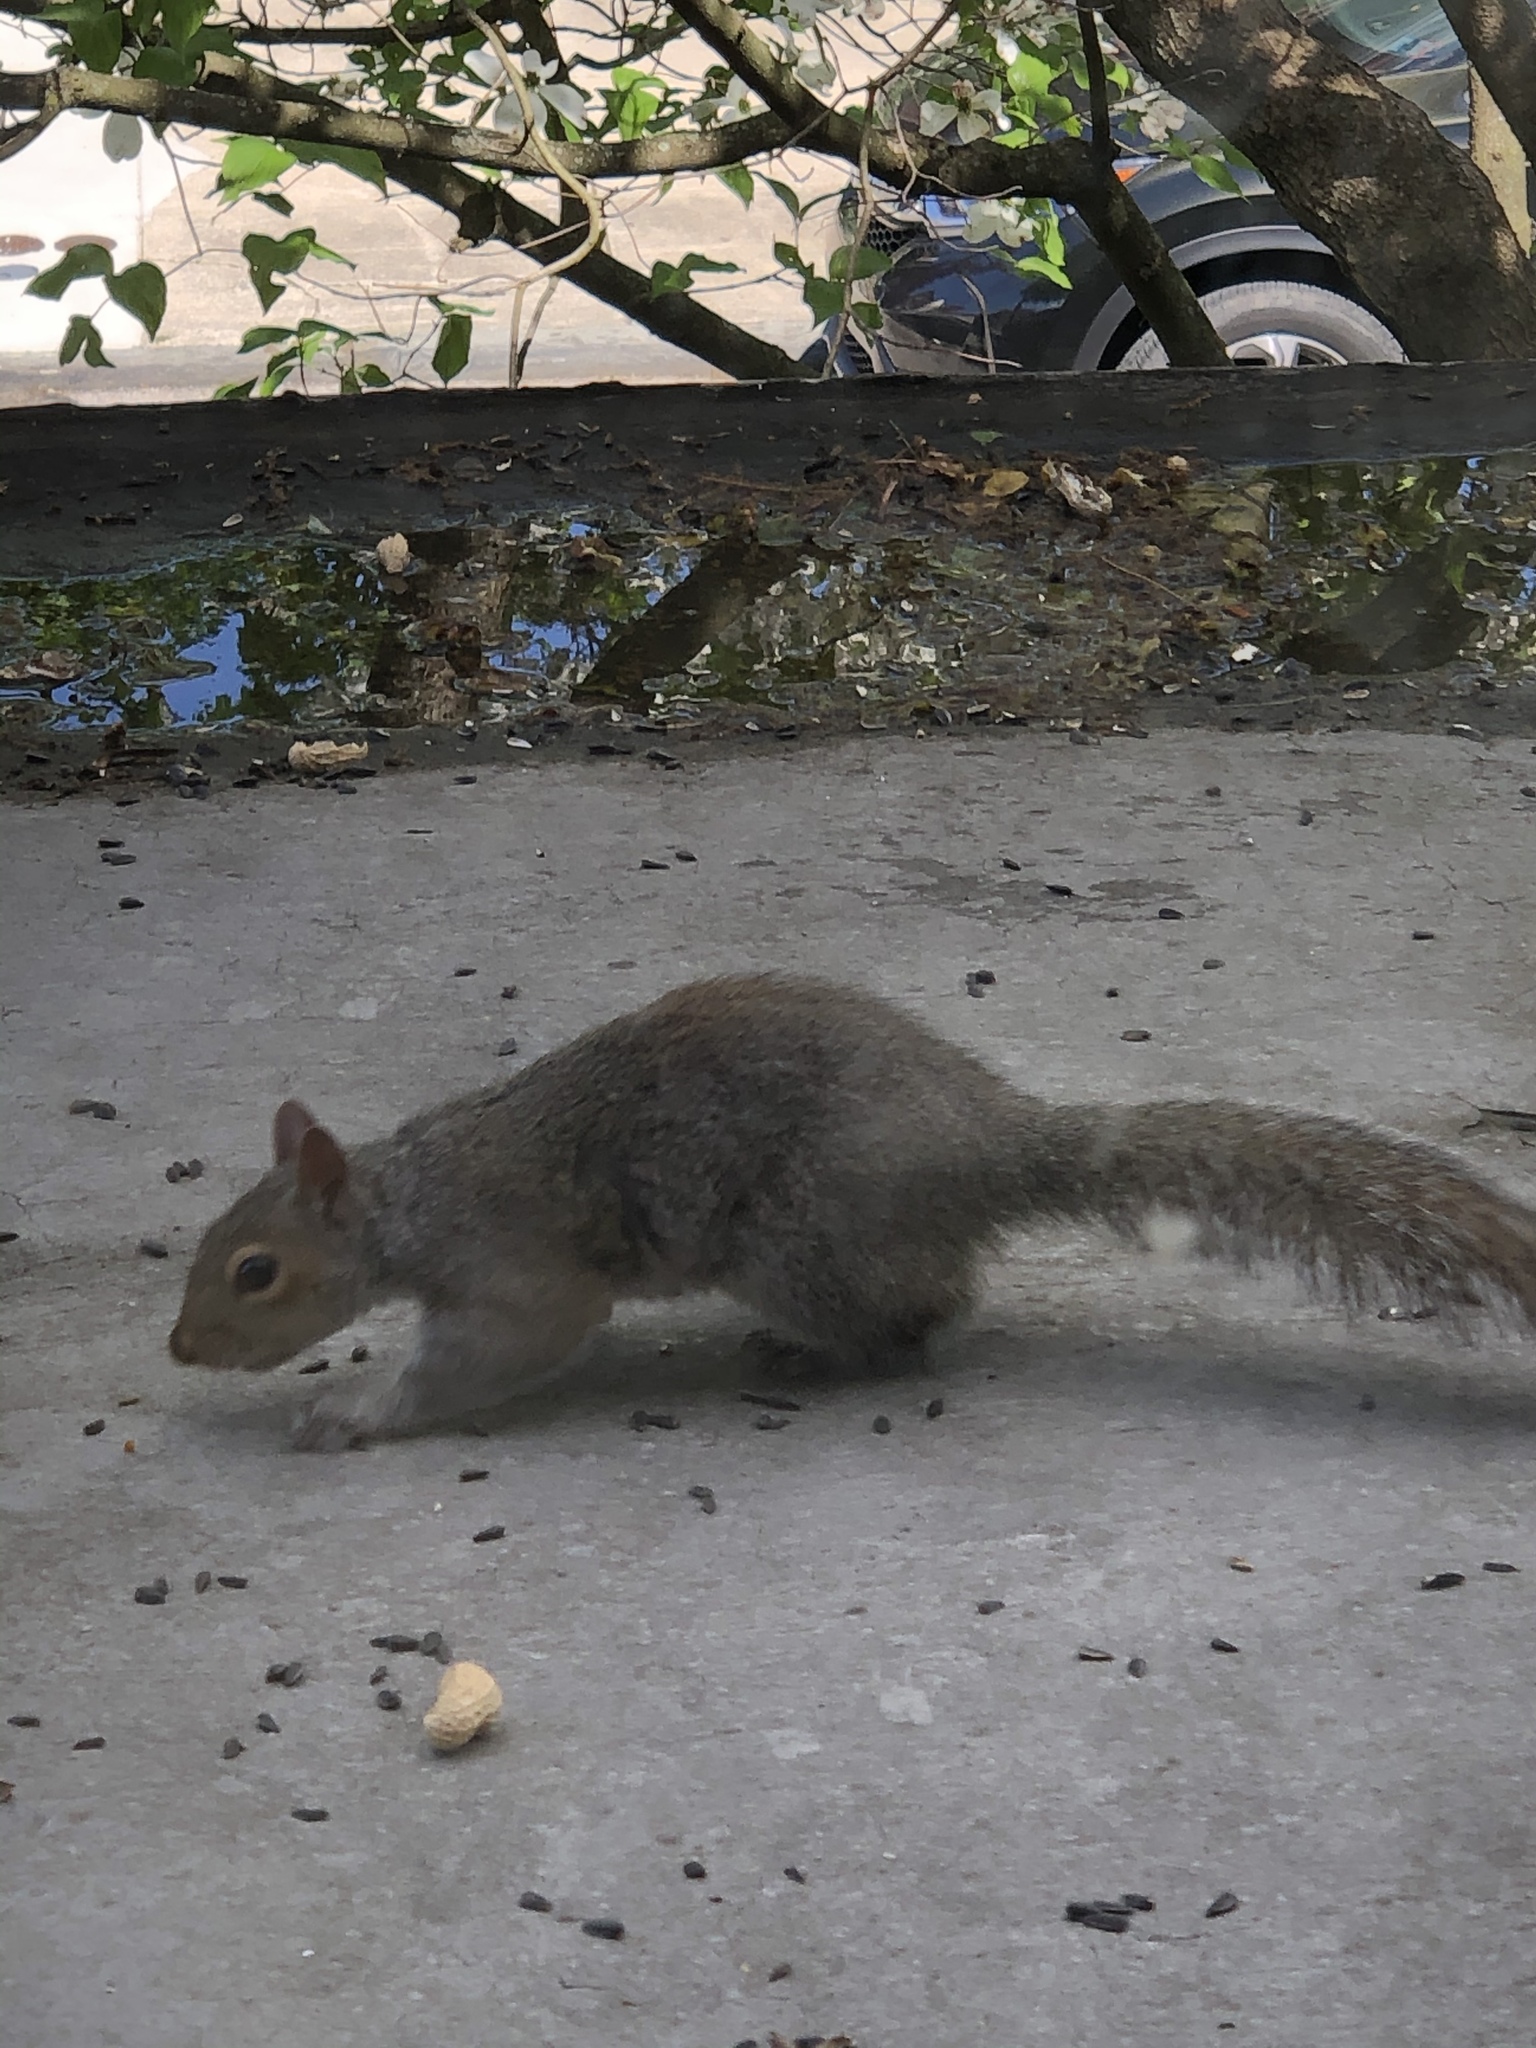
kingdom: Animalia
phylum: Chordata
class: Mammalia
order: Rodentia
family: Sciuridae
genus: Sciurus
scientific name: Sciurus carolinensis
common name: Eastern gray squirrel
